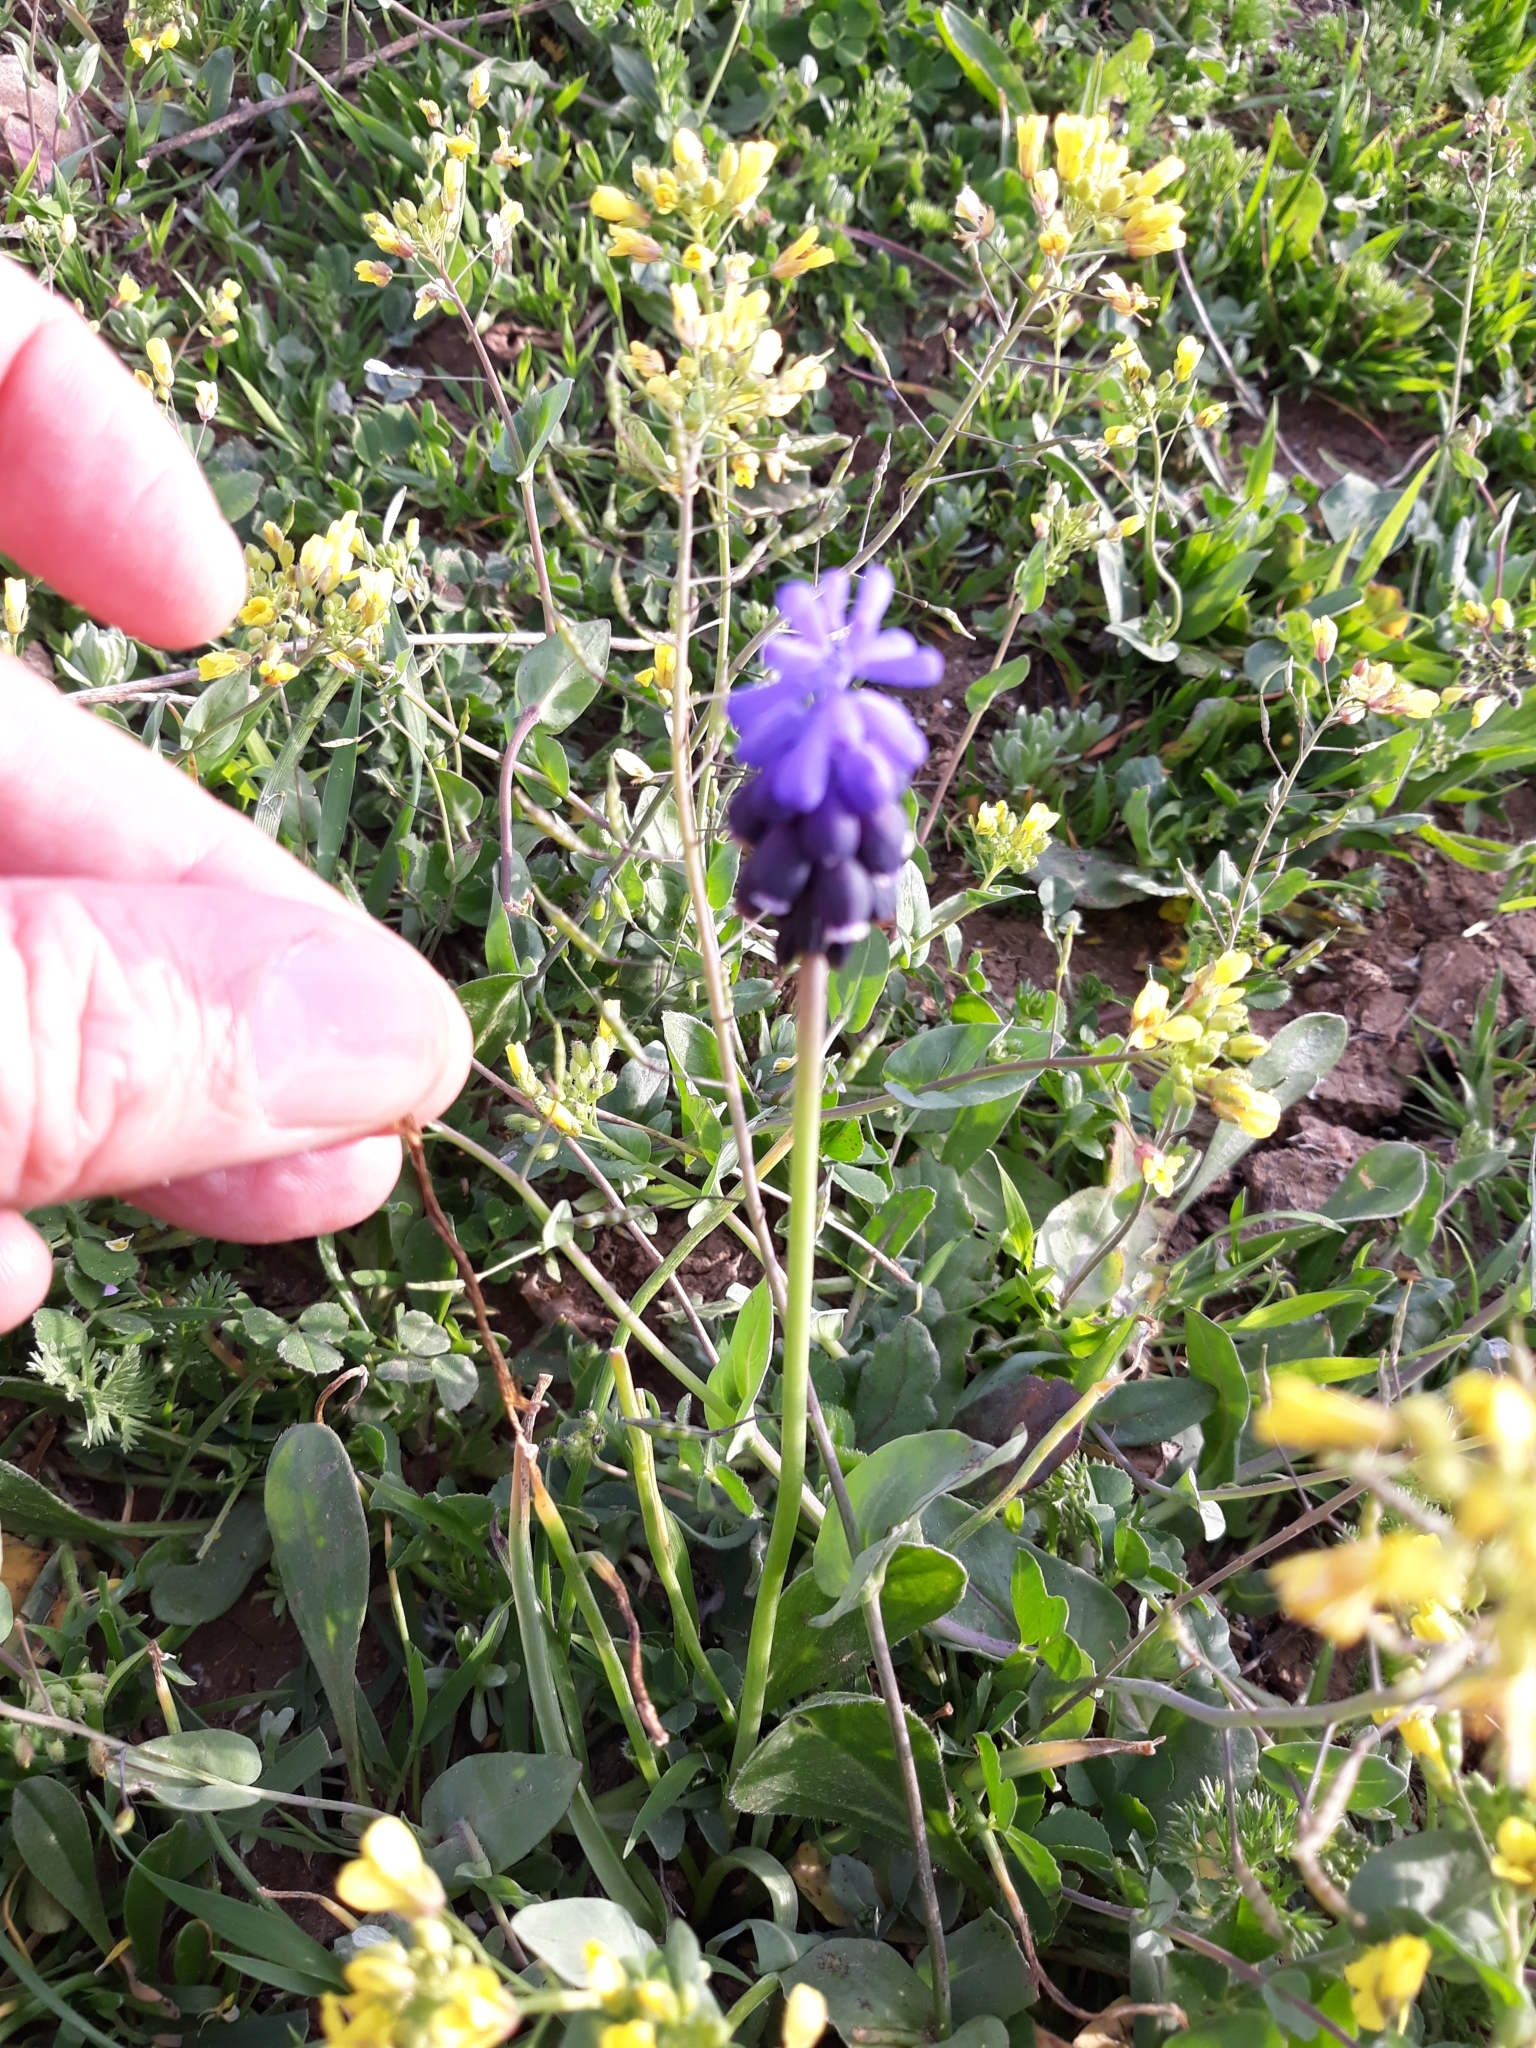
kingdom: Plantae
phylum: Tracheophyta
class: Liliopsida
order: Asparagales
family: Asparagaceae
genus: Muscari
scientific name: Muscari neglectum
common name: Grape-hyacinth
